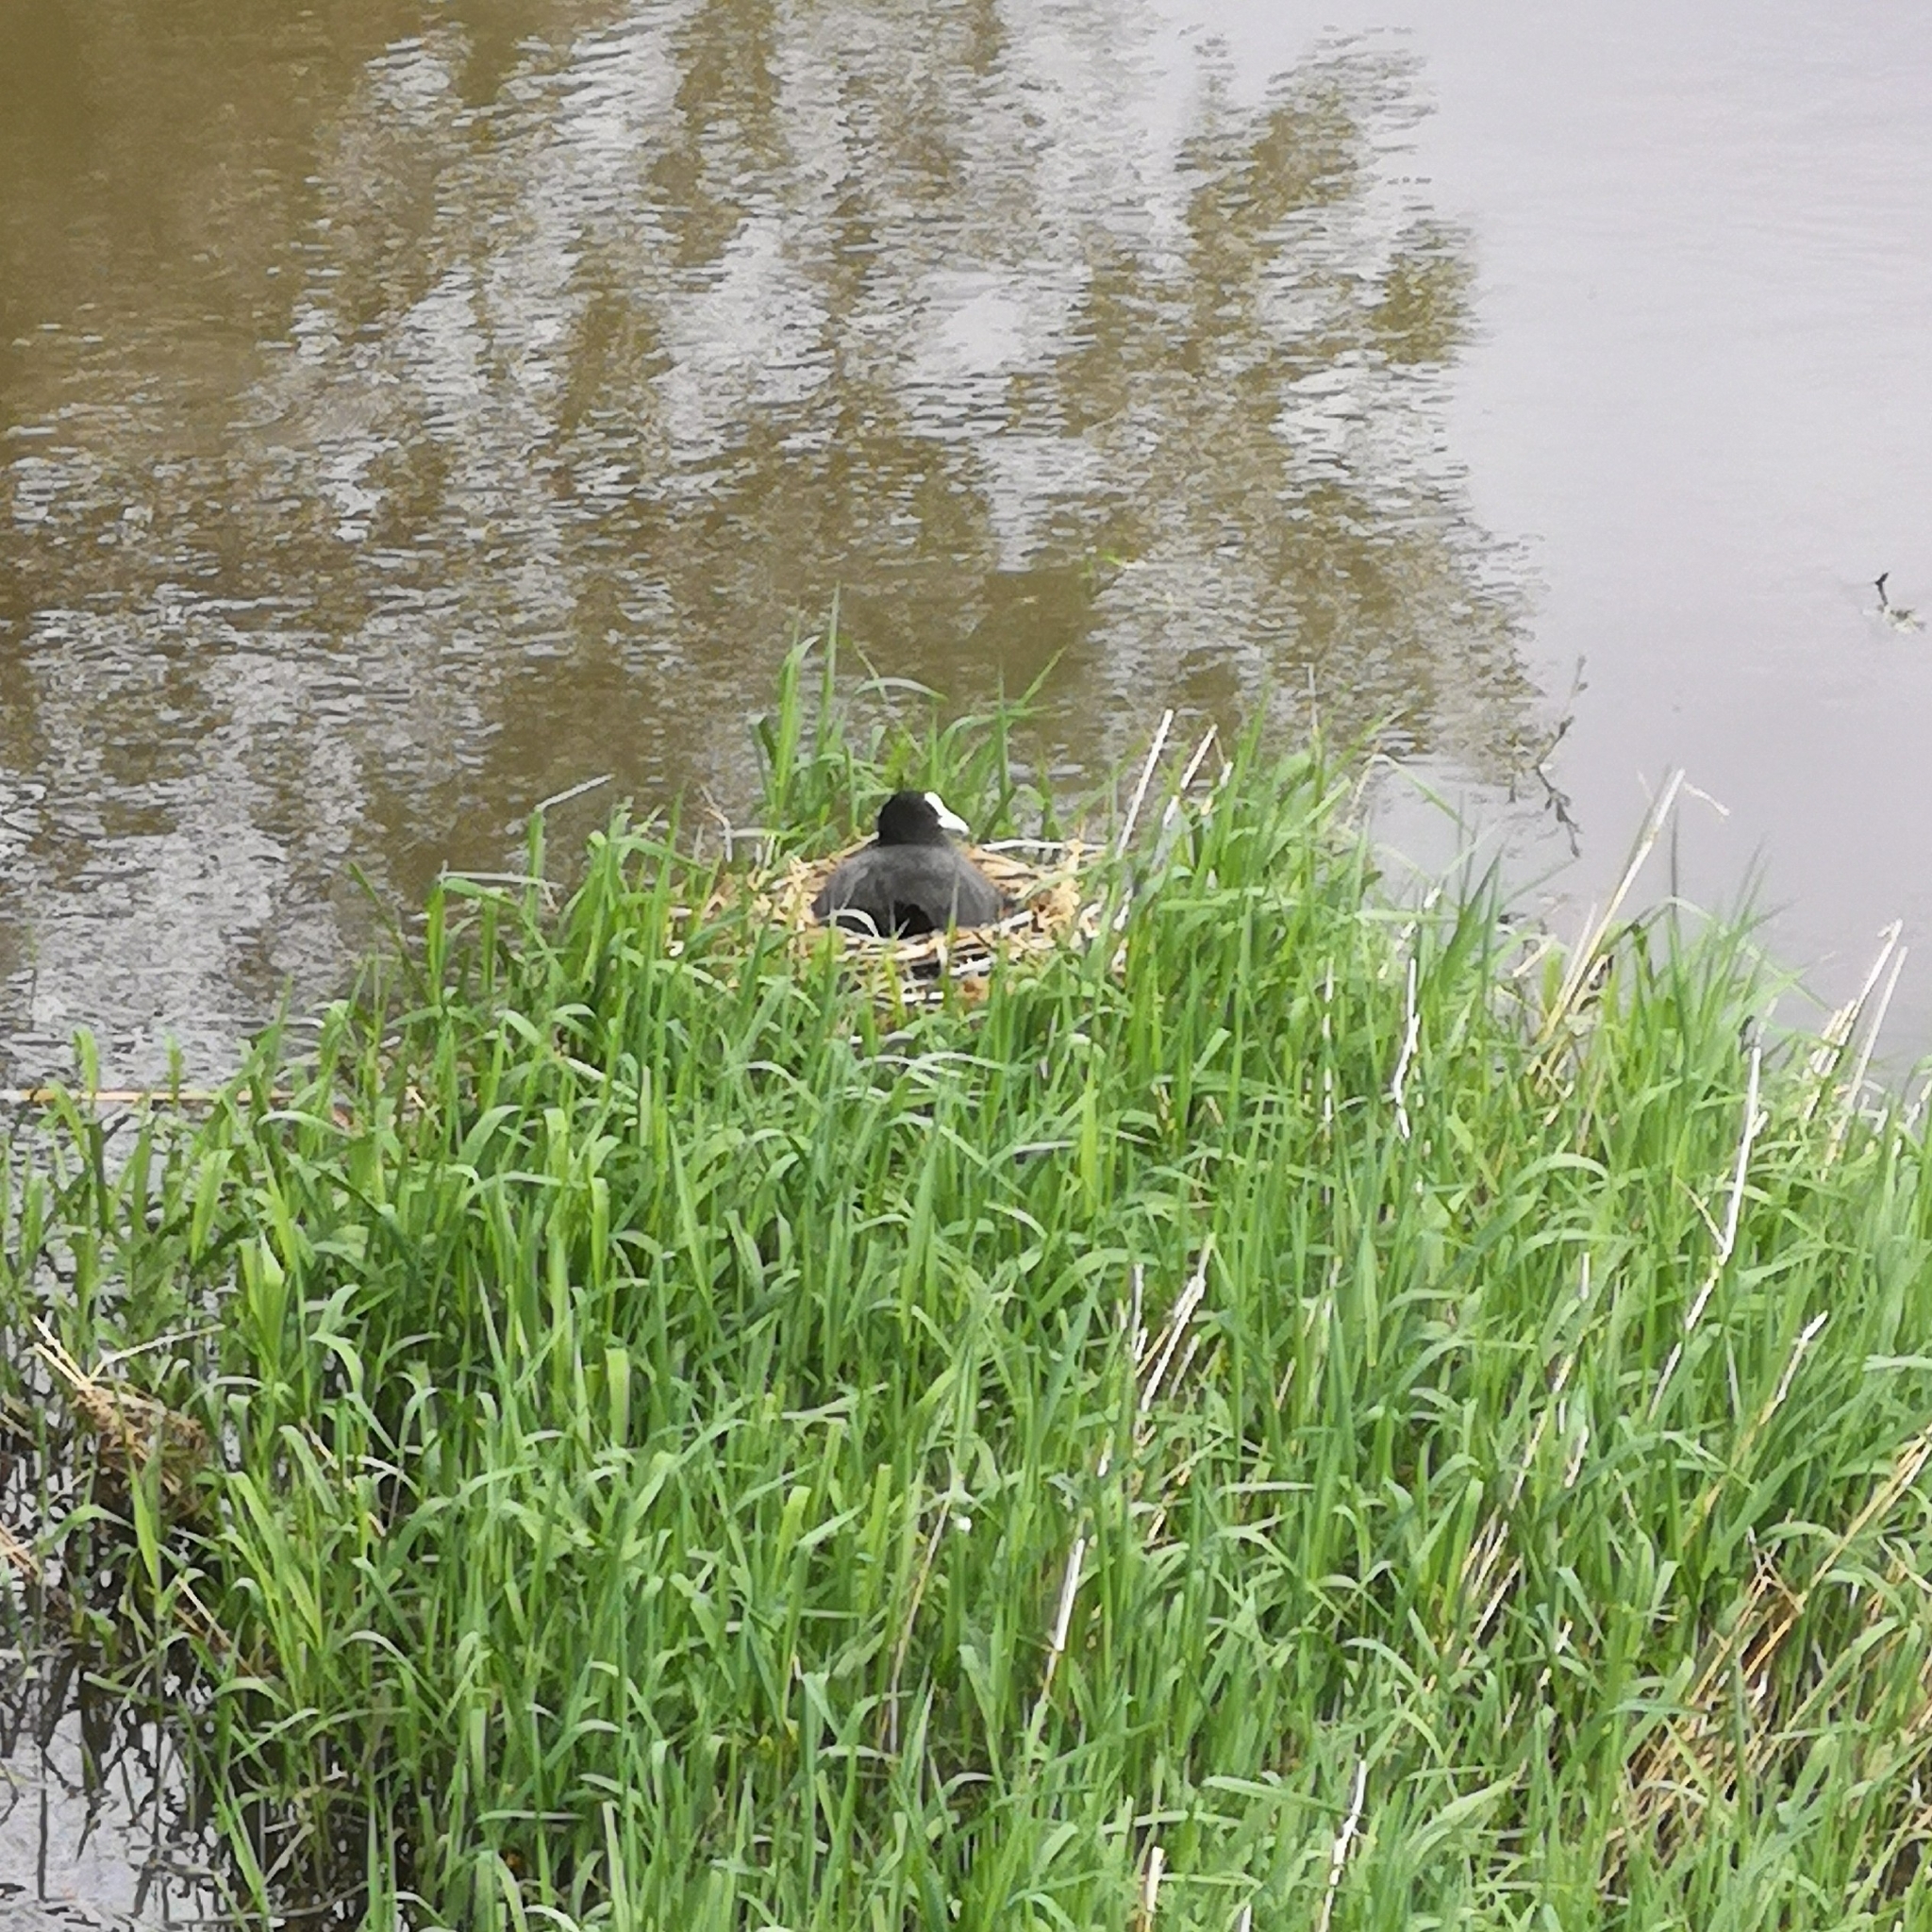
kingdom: Animalia
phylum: Chordata
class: Aves
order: Gruiformes
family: Rallidae
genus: Fulica
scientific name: Fulica atra
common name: Eurasian coot
